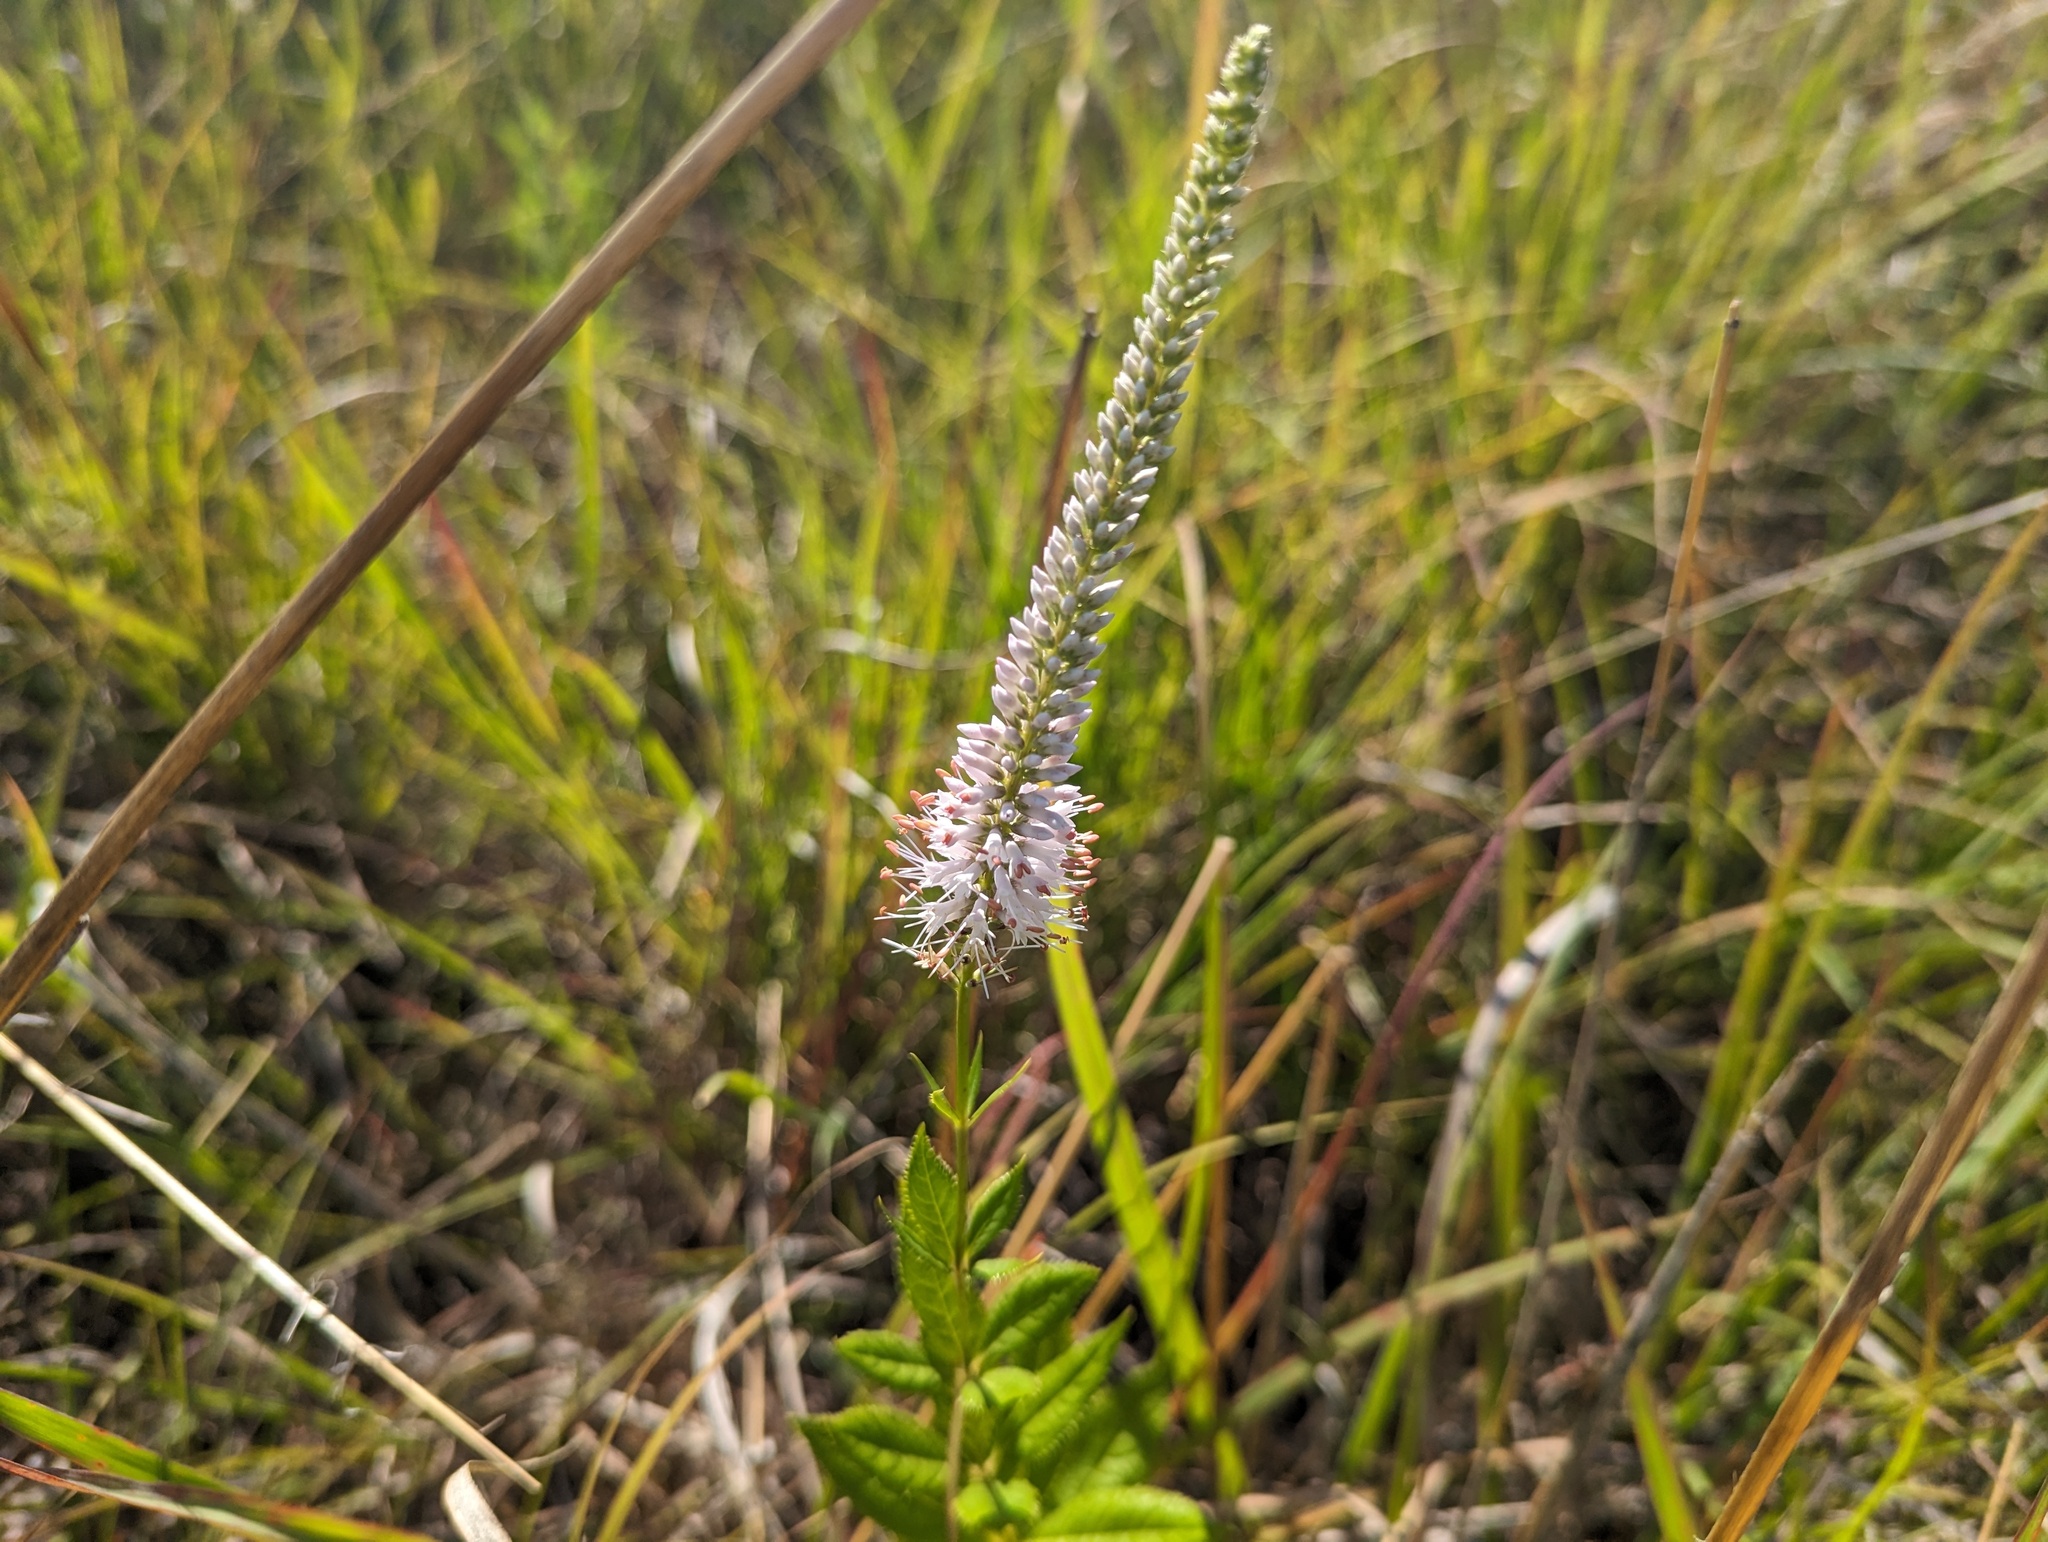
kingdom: Plantae
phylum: Tracheophyta
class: Magnoliopsida
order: Lamiales
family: Plantaginaceae
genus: Veronicastrum
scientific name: Veronicastrum virginicum
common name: Blackroot
